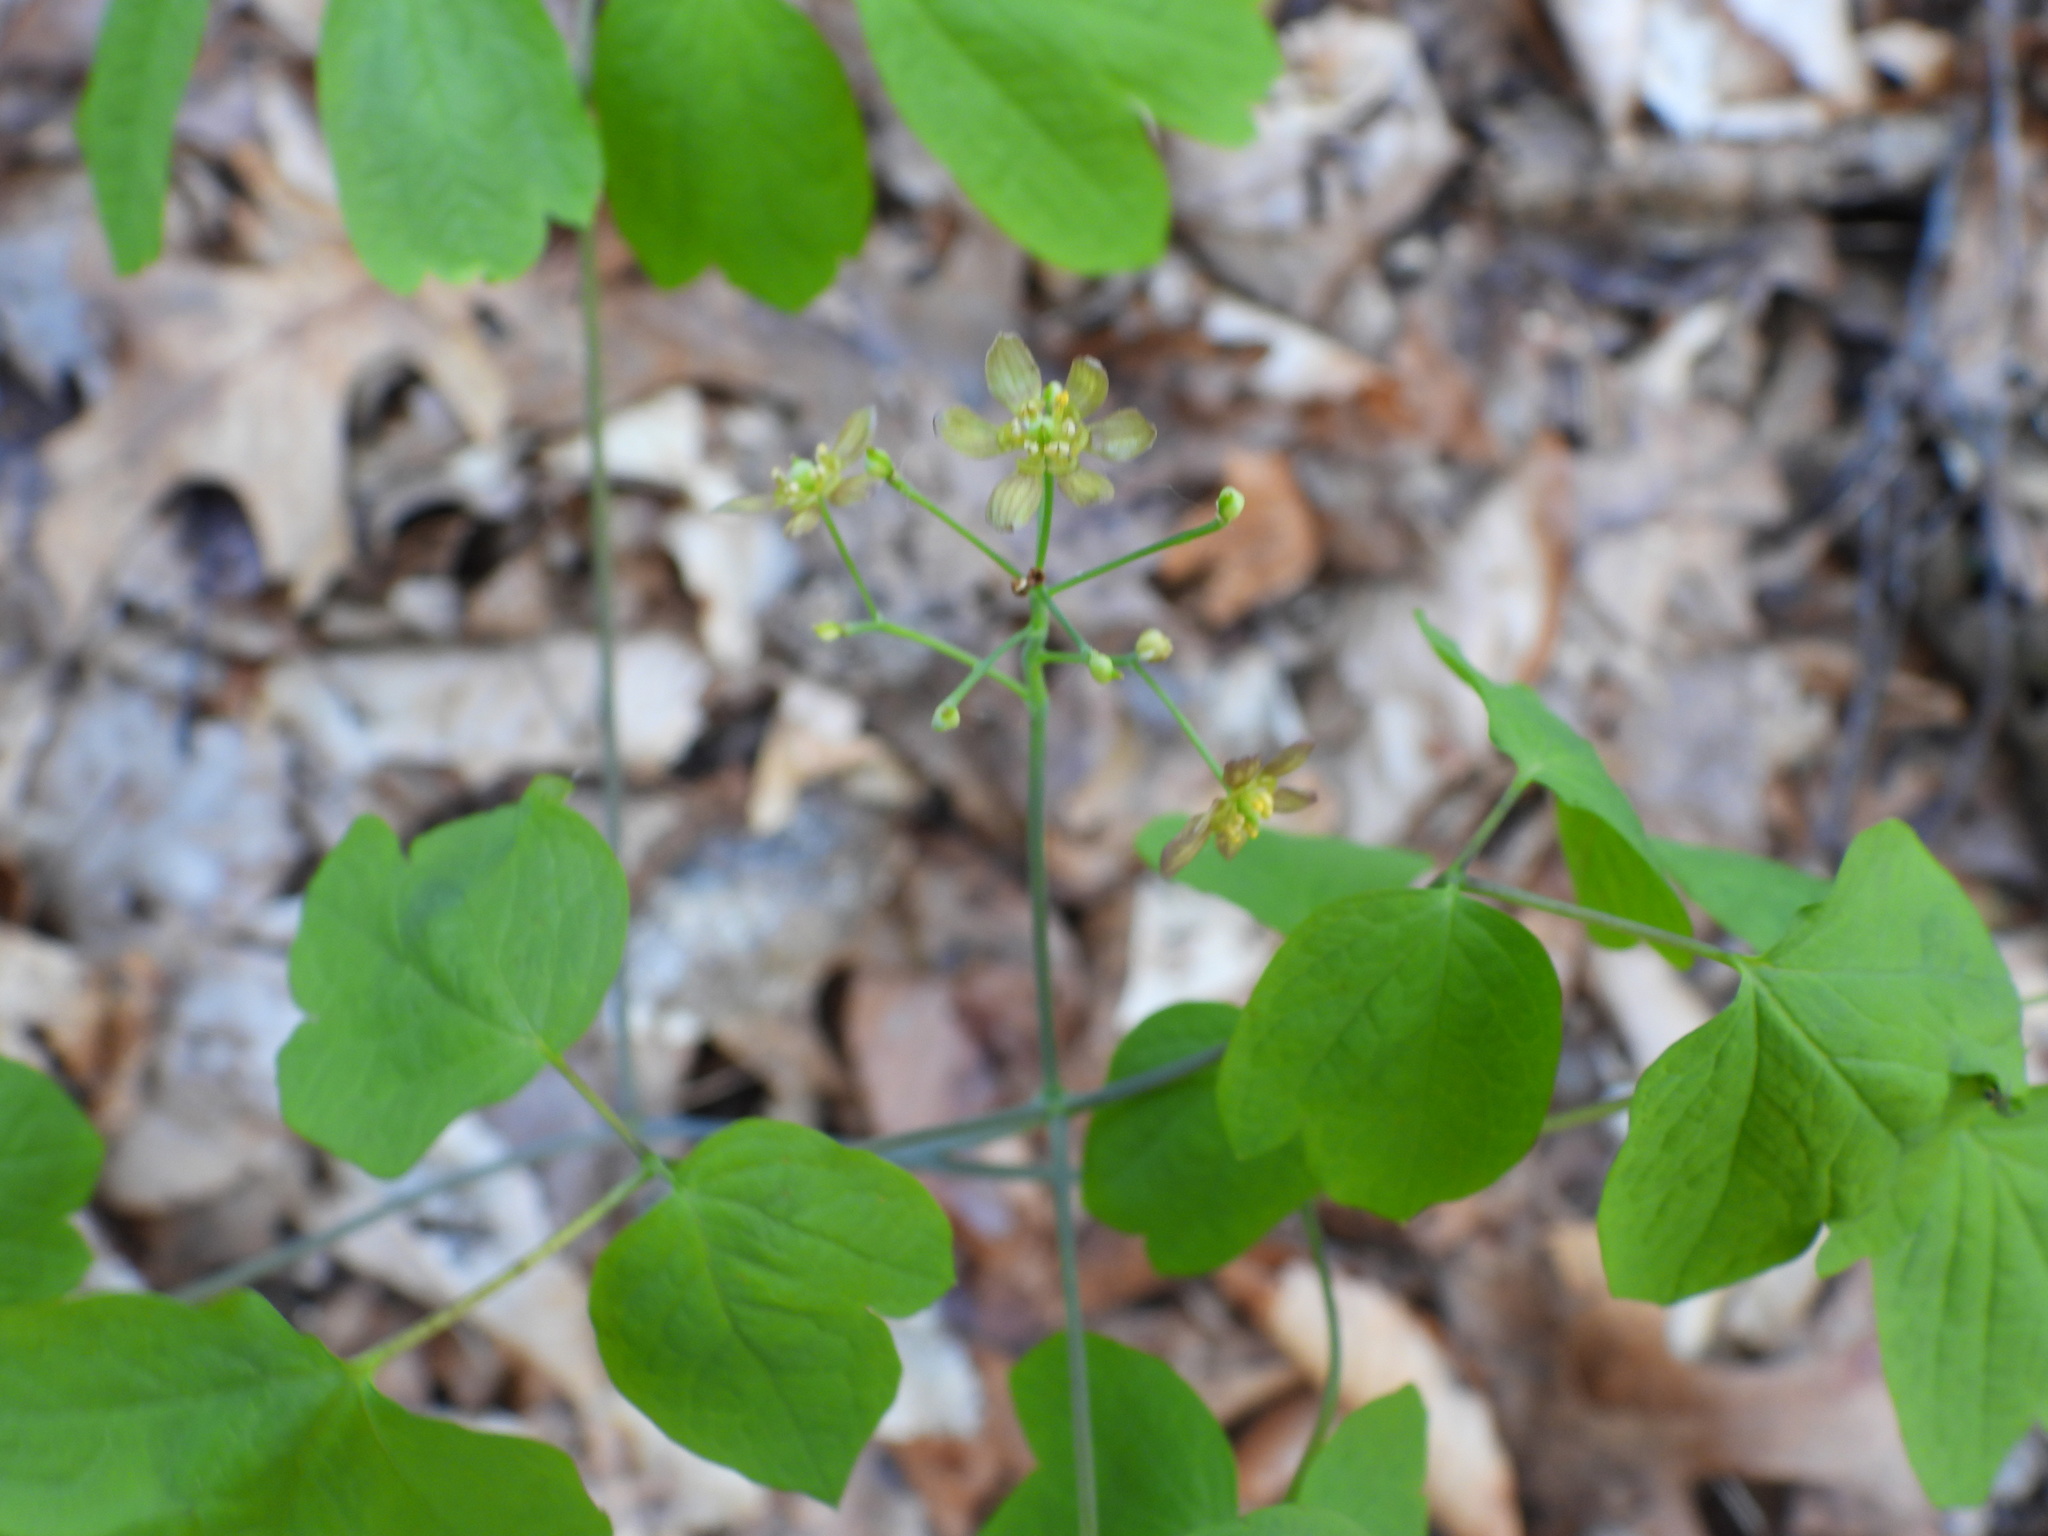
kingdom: Plantae
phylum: Tracheophyta
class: Magnoliopsida
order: Ranunculales
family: Berberidaceae
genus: Caulophyllum
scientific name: Caulophyllum thalictroides
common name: Blue cohosh
